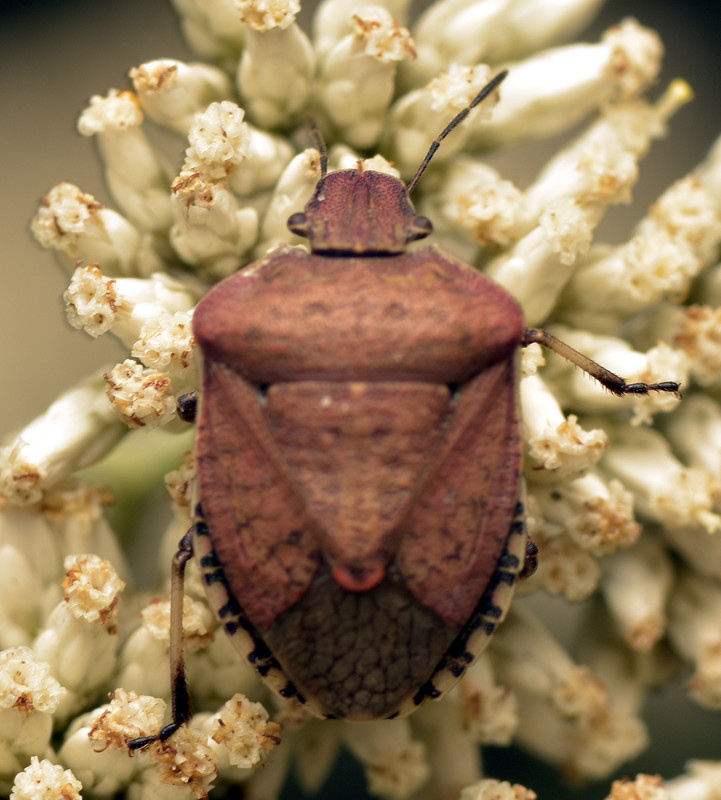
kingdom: Animalia
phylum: Arthropoda
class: Insecta
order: Hemiptera
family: Pentatomidae
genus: Dictyotus
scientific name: Dictyotus caenosus
